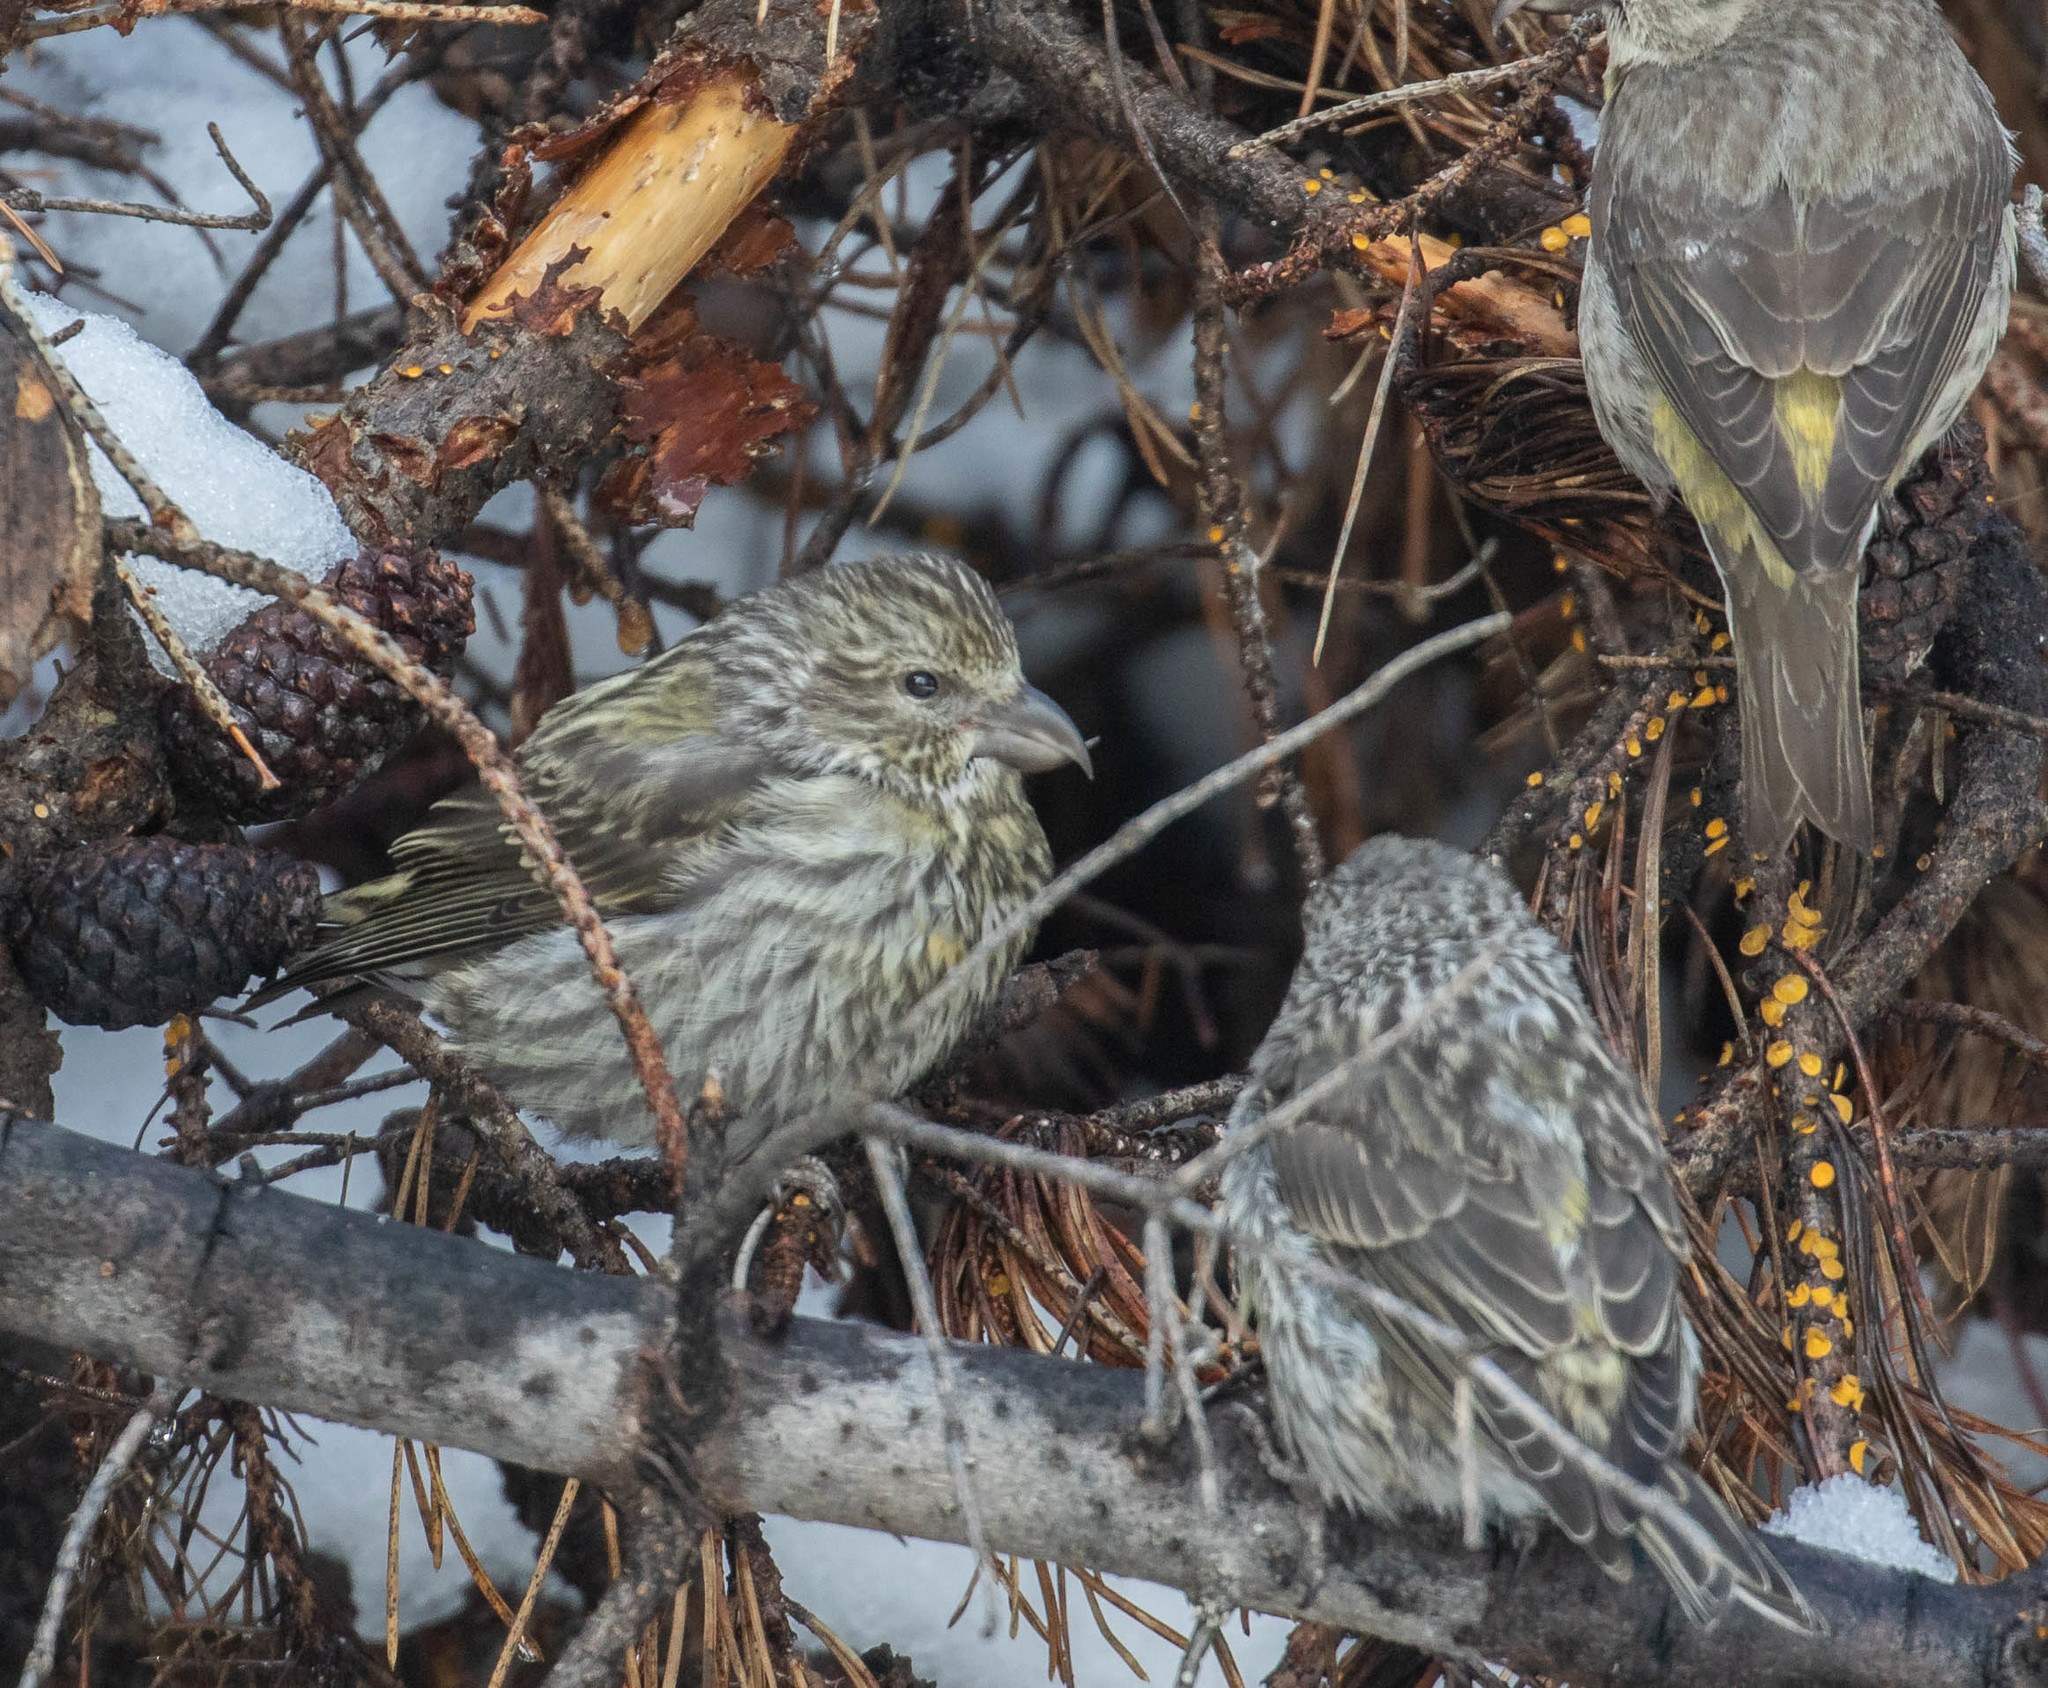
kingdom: Animalia
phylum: Chordata
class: Aves
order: Passeriformes
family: Fringillidae
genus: Loxia
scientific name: Loxia sinesciuris
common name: Cassia crossbill
